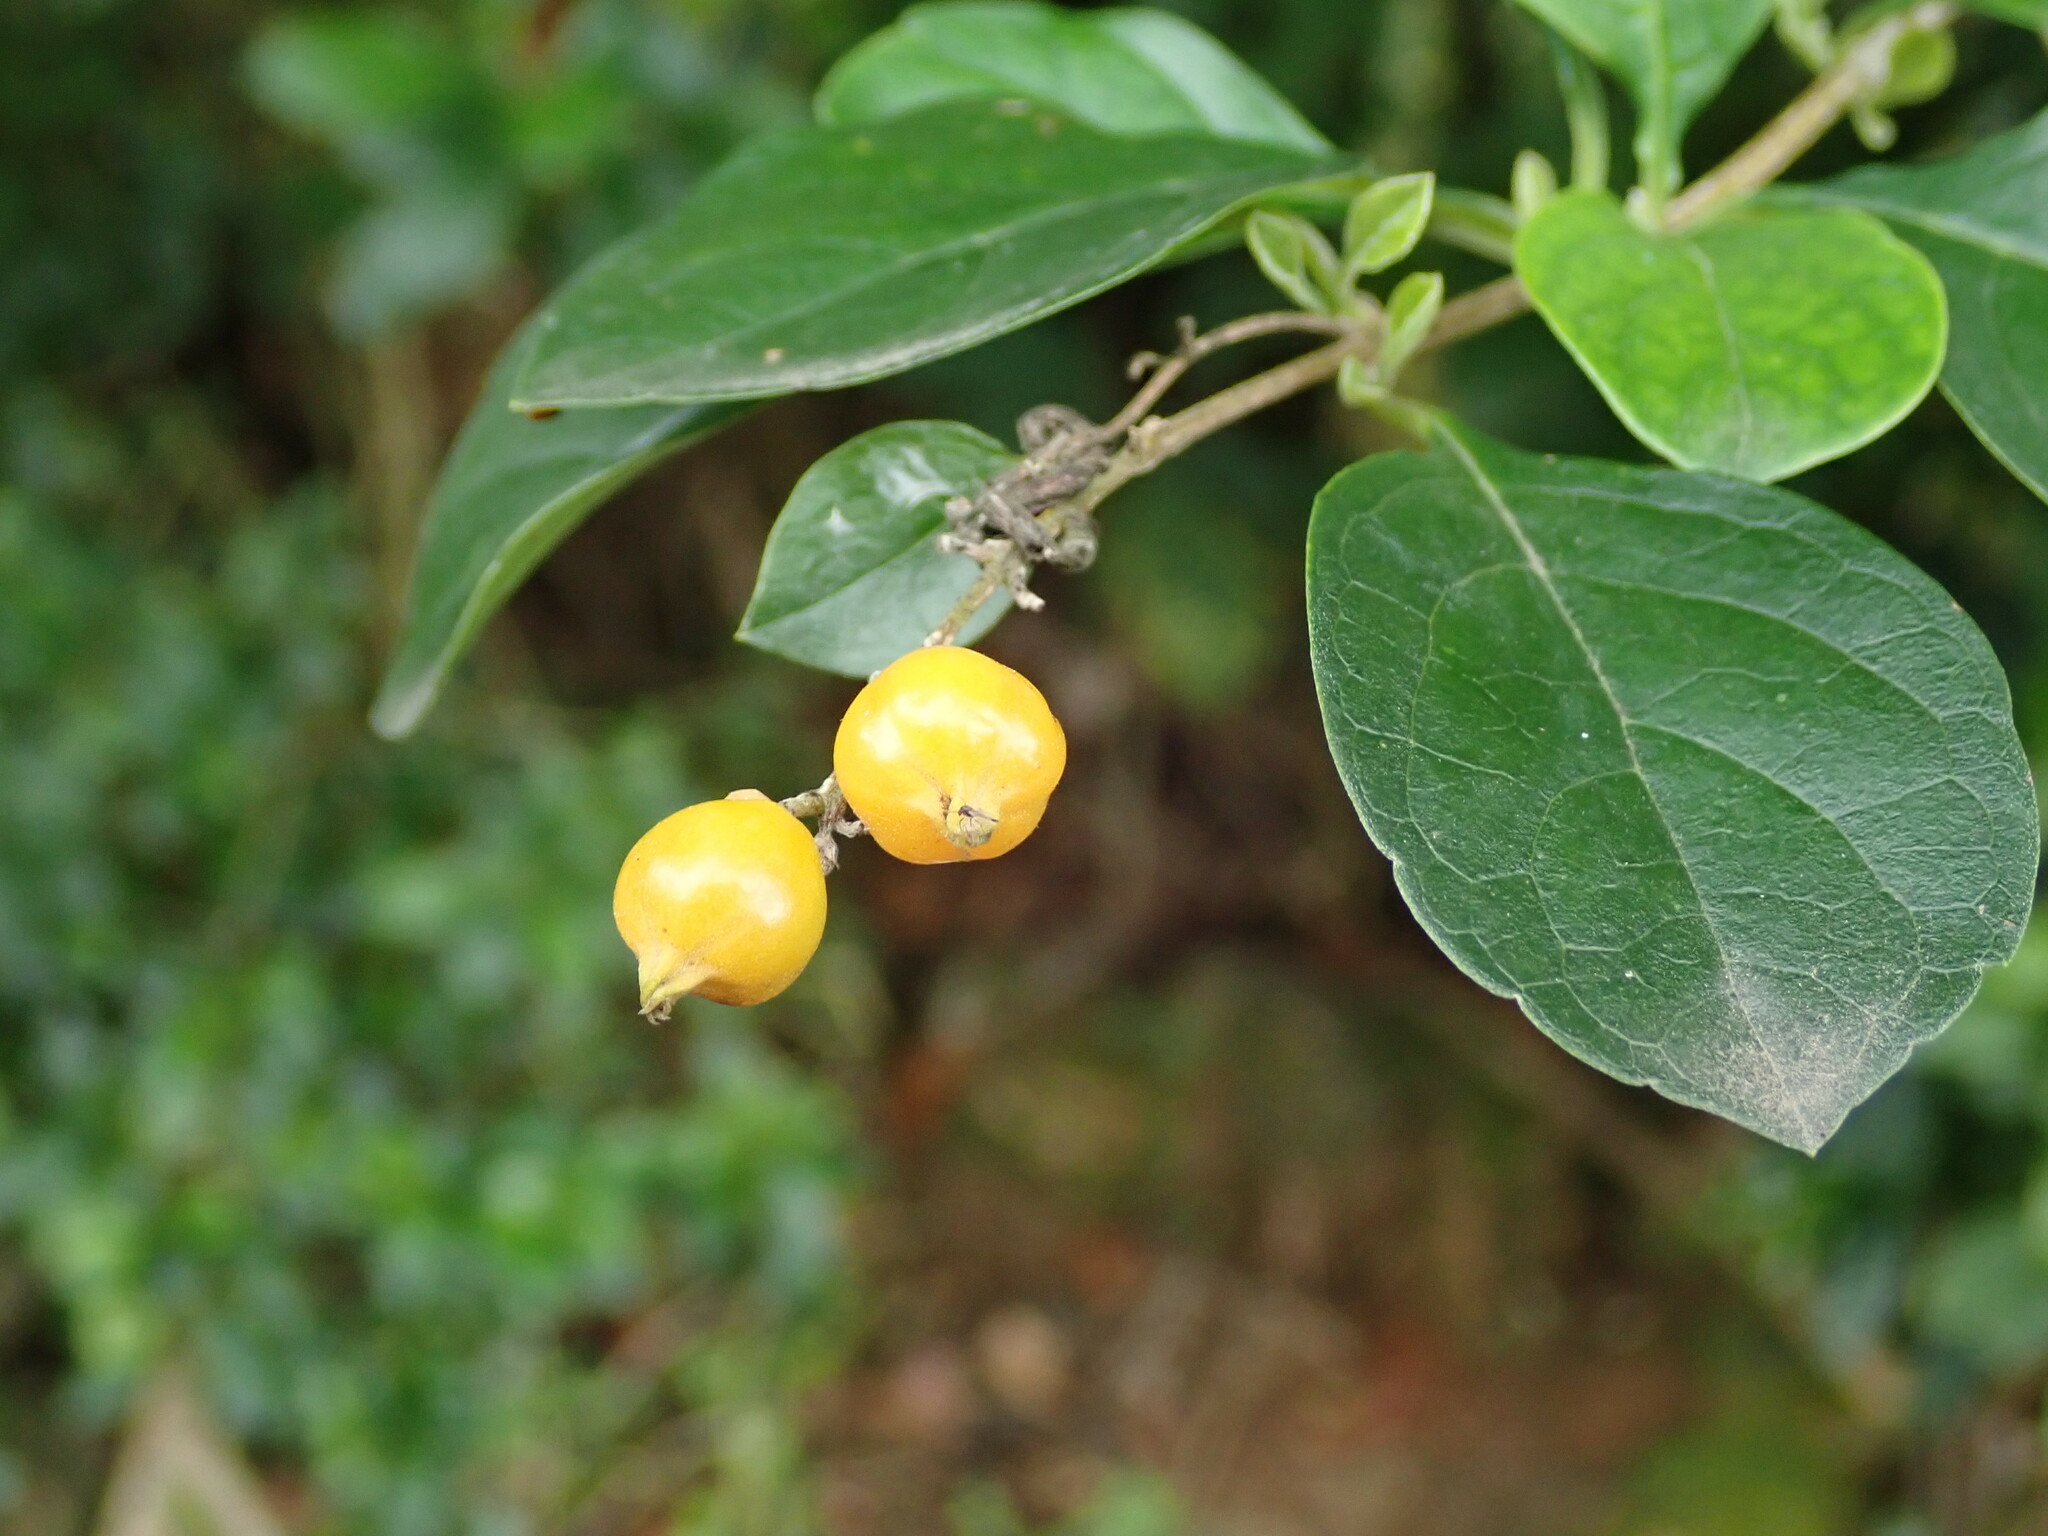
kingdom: Plantae
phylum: Tracheophyta
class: Magnoliopsida
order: Lamiales
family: Verbenaceae
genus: Duranta
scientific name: Duranta erecta
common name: Golden dewdrops
